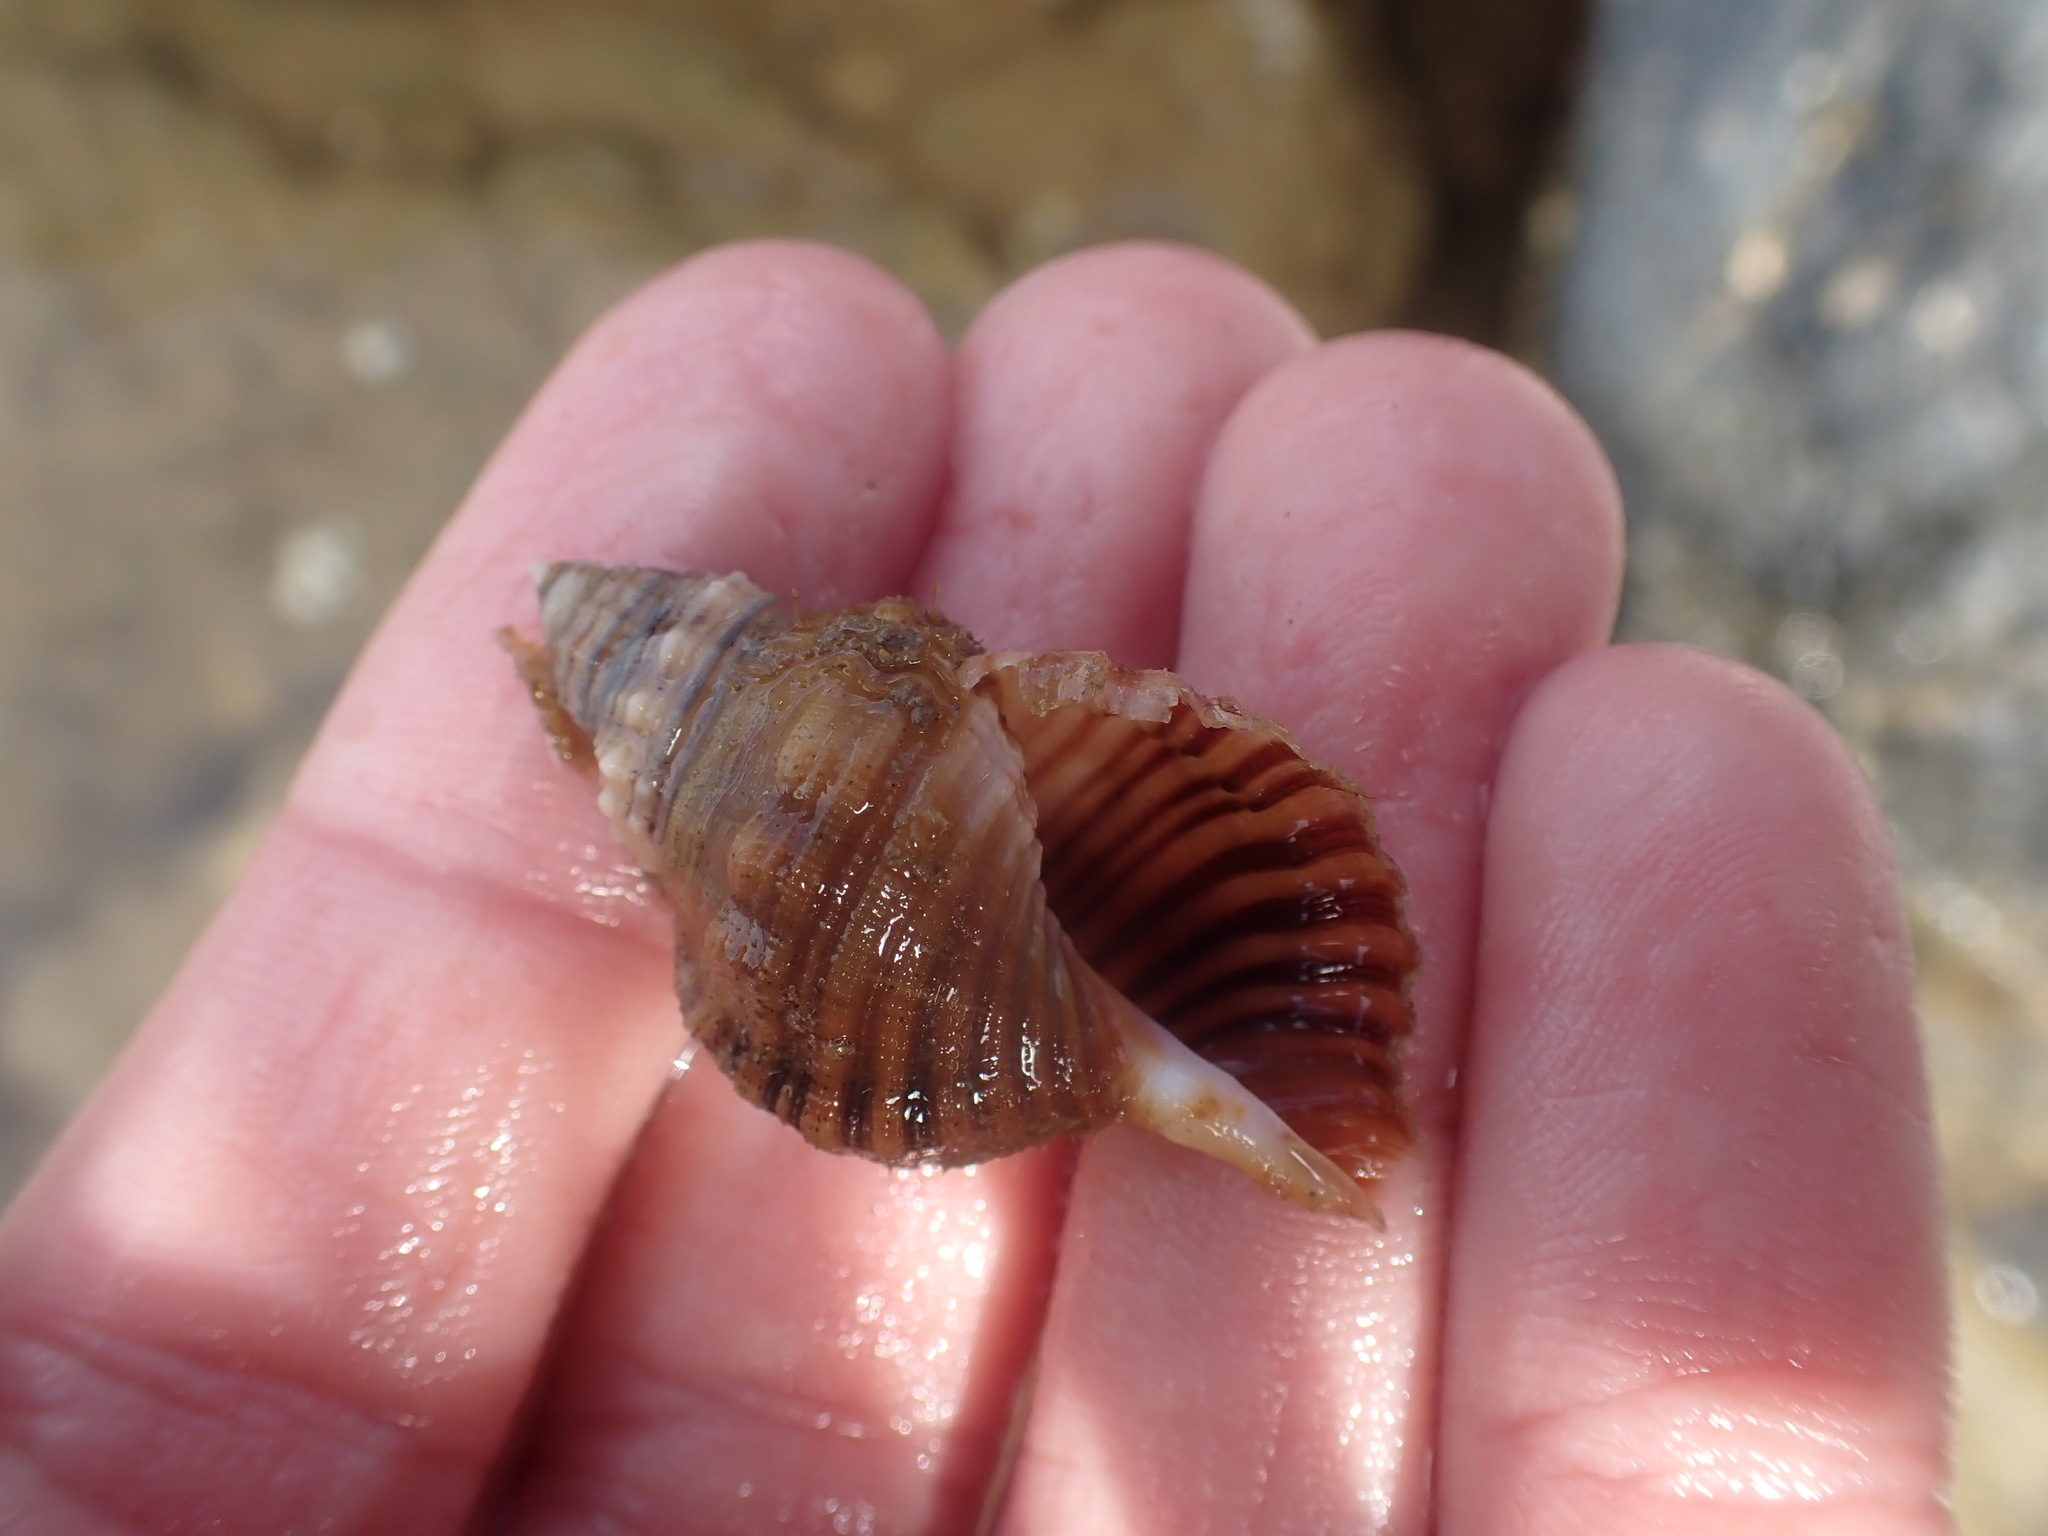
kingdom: Animalia
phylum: Mollusca
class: Gastropoda
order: Littorinimorpha
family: Cymatiidae
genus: Cabestana
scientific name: Cabestana spengleri
